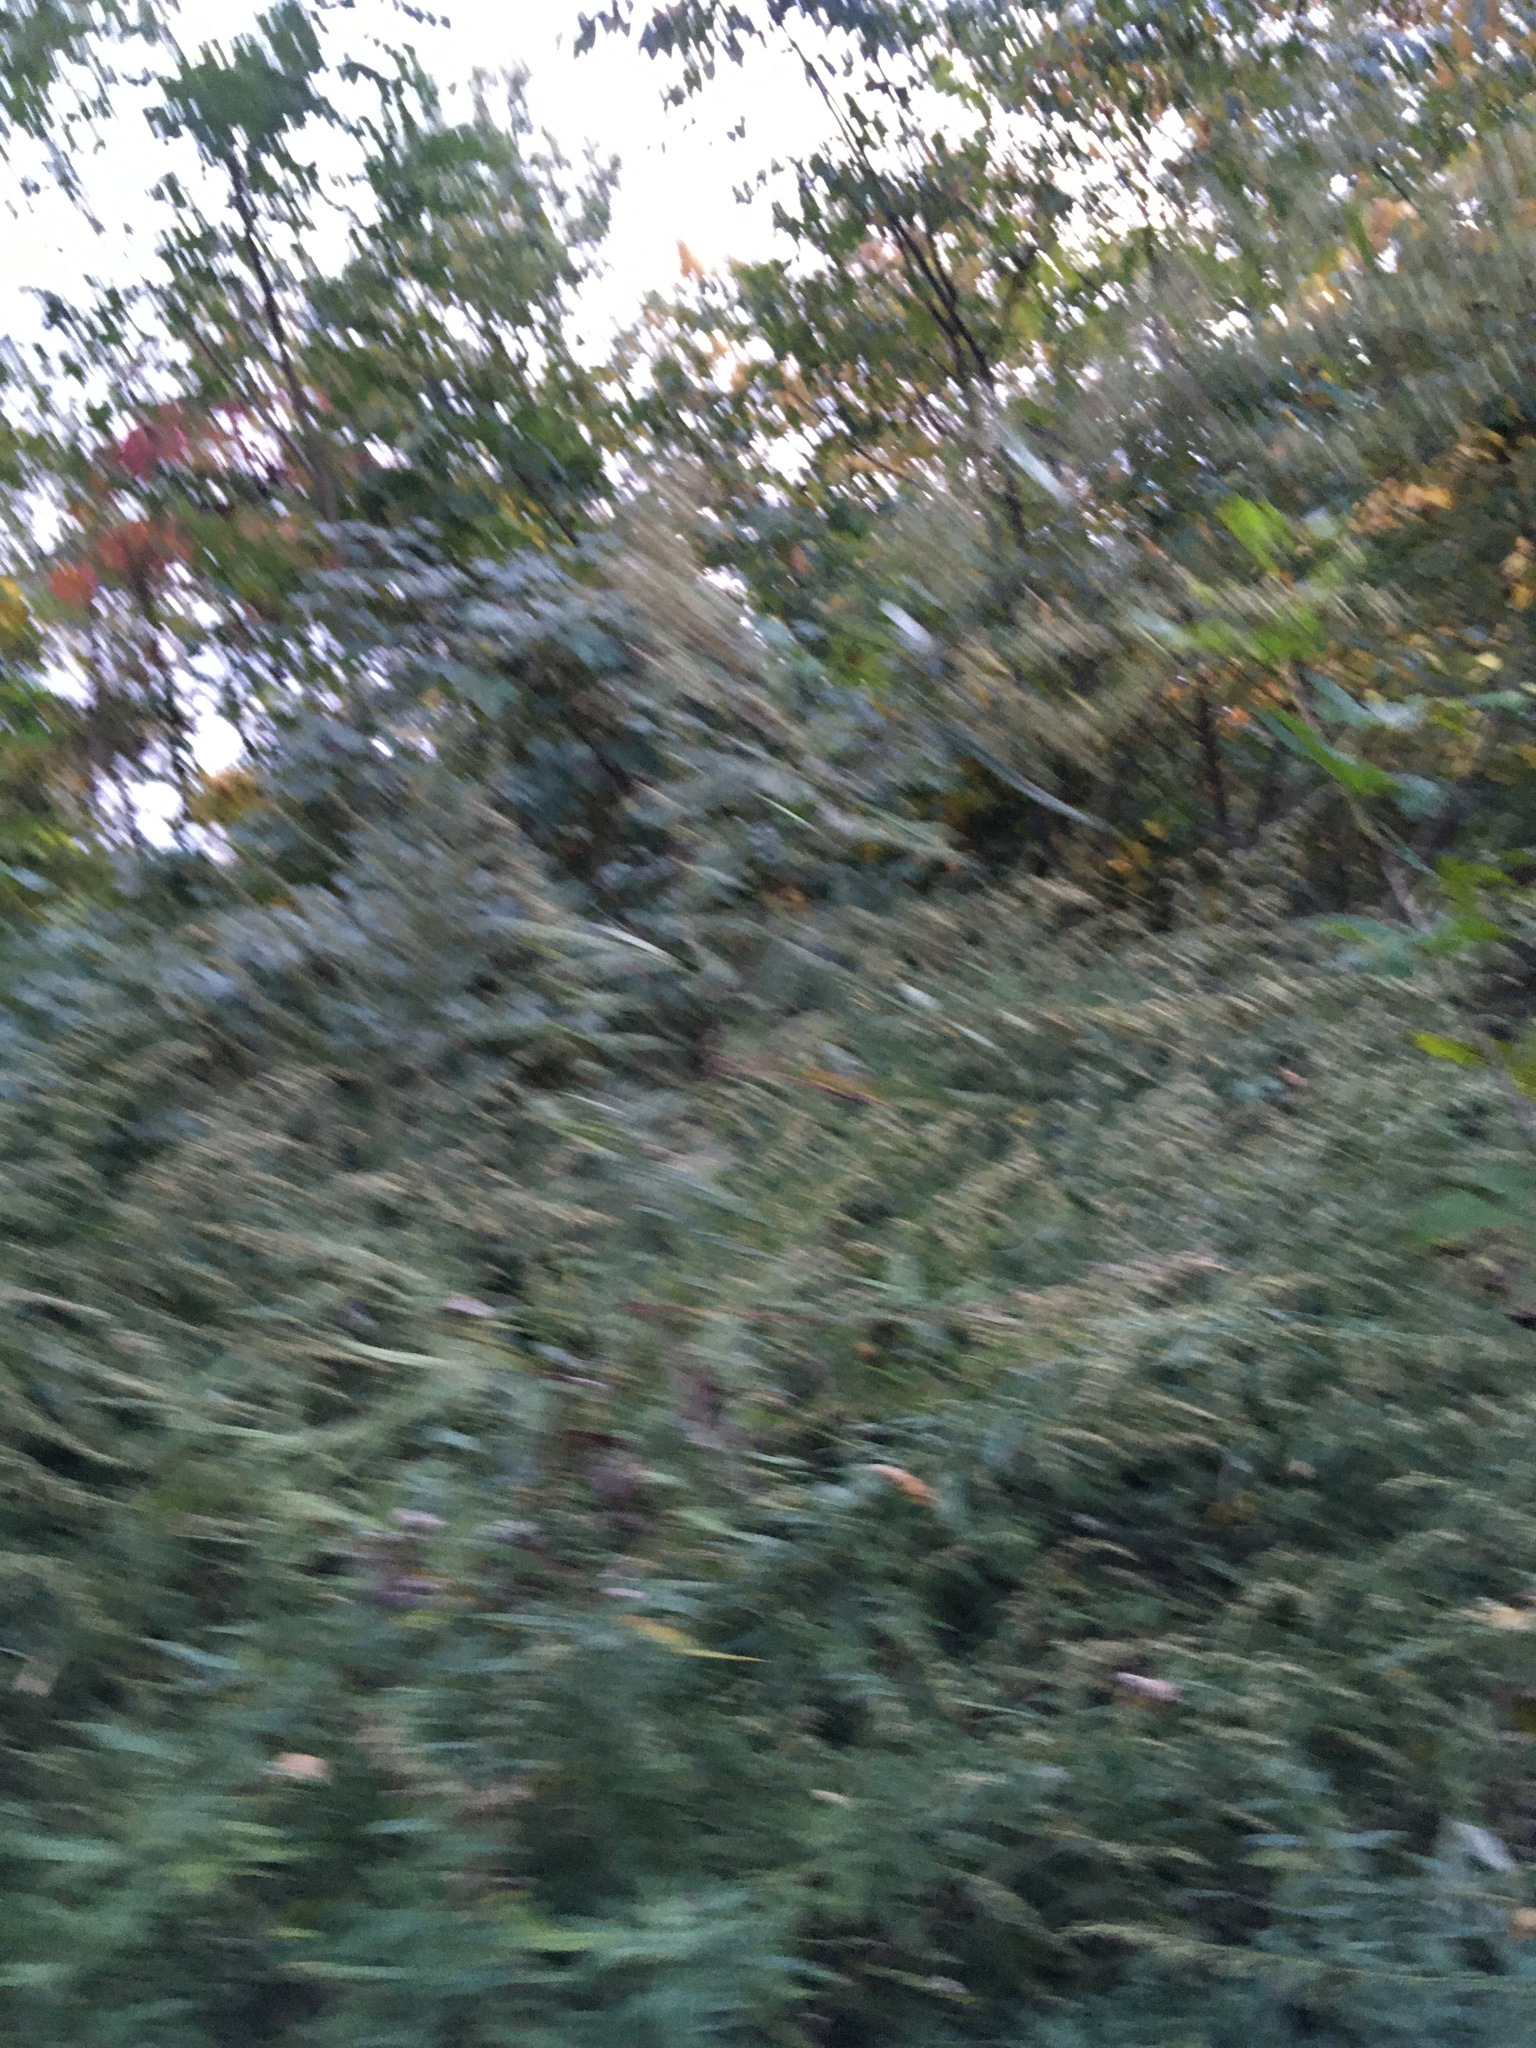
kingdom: Plantae
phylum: Tracheophyta
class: Magnoliopsida
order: Asterales
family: Asteraceae
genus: Artemisia
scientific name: Artemisia vulgaris
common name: Mugwort
